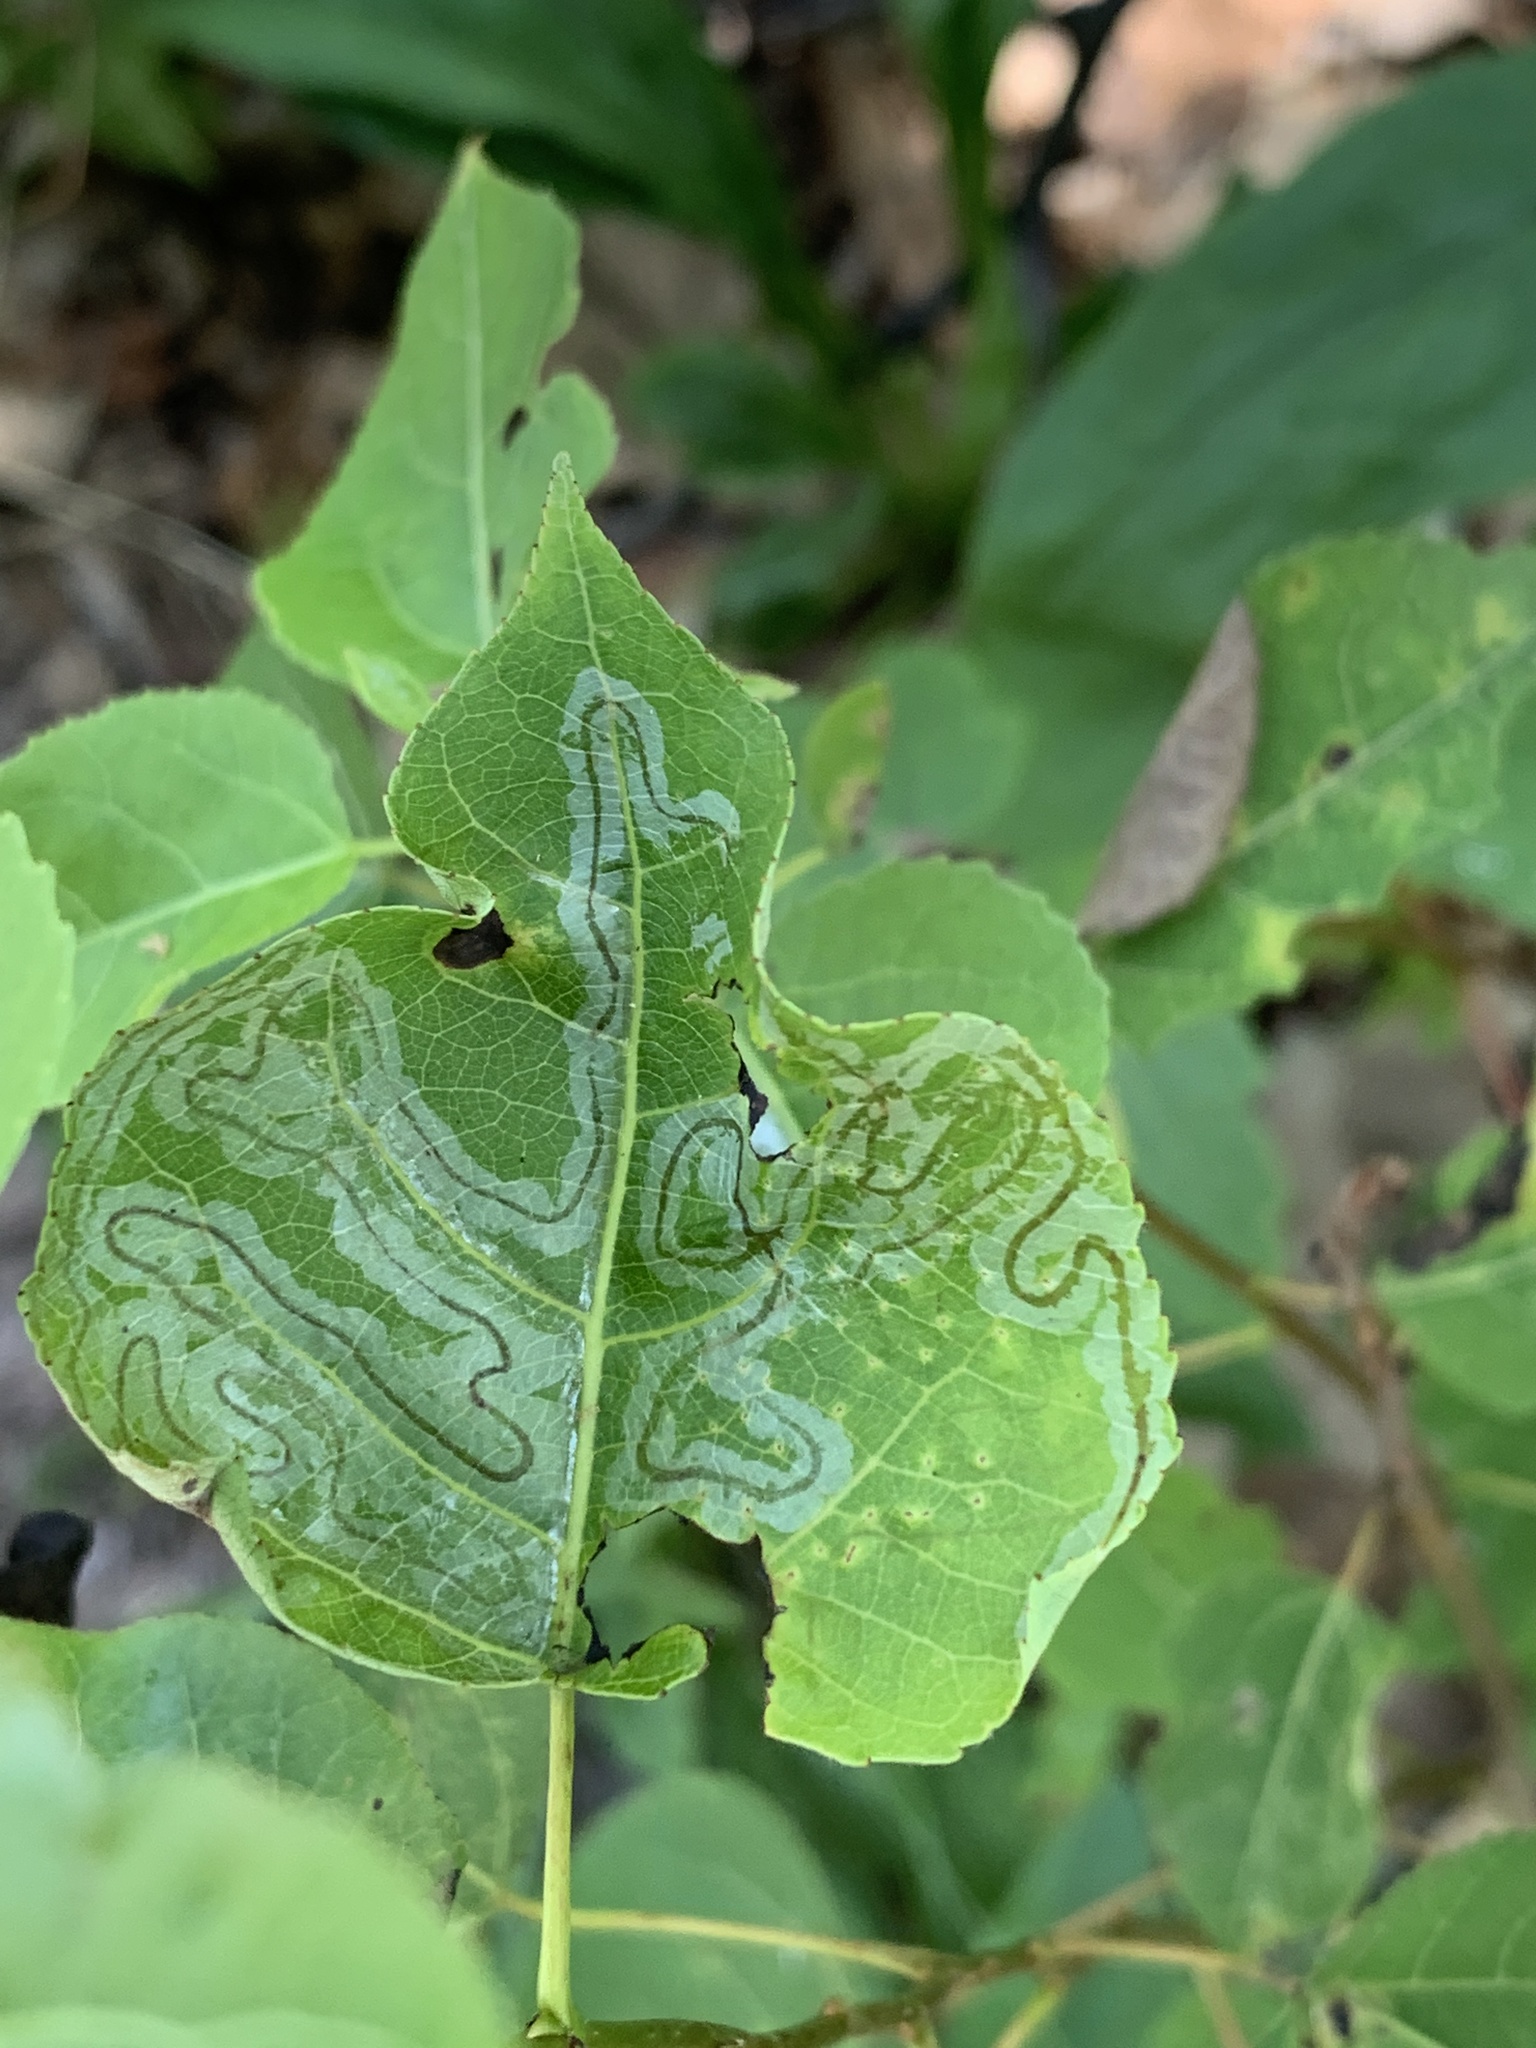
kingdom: Animalia
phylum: Arthropoda
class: Insecta
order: Lepidoptera
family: Gracillariidae
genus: Phyllocnistis
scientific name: Phyllocnistis populiella
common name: Aspen serpentine leafminer moth
